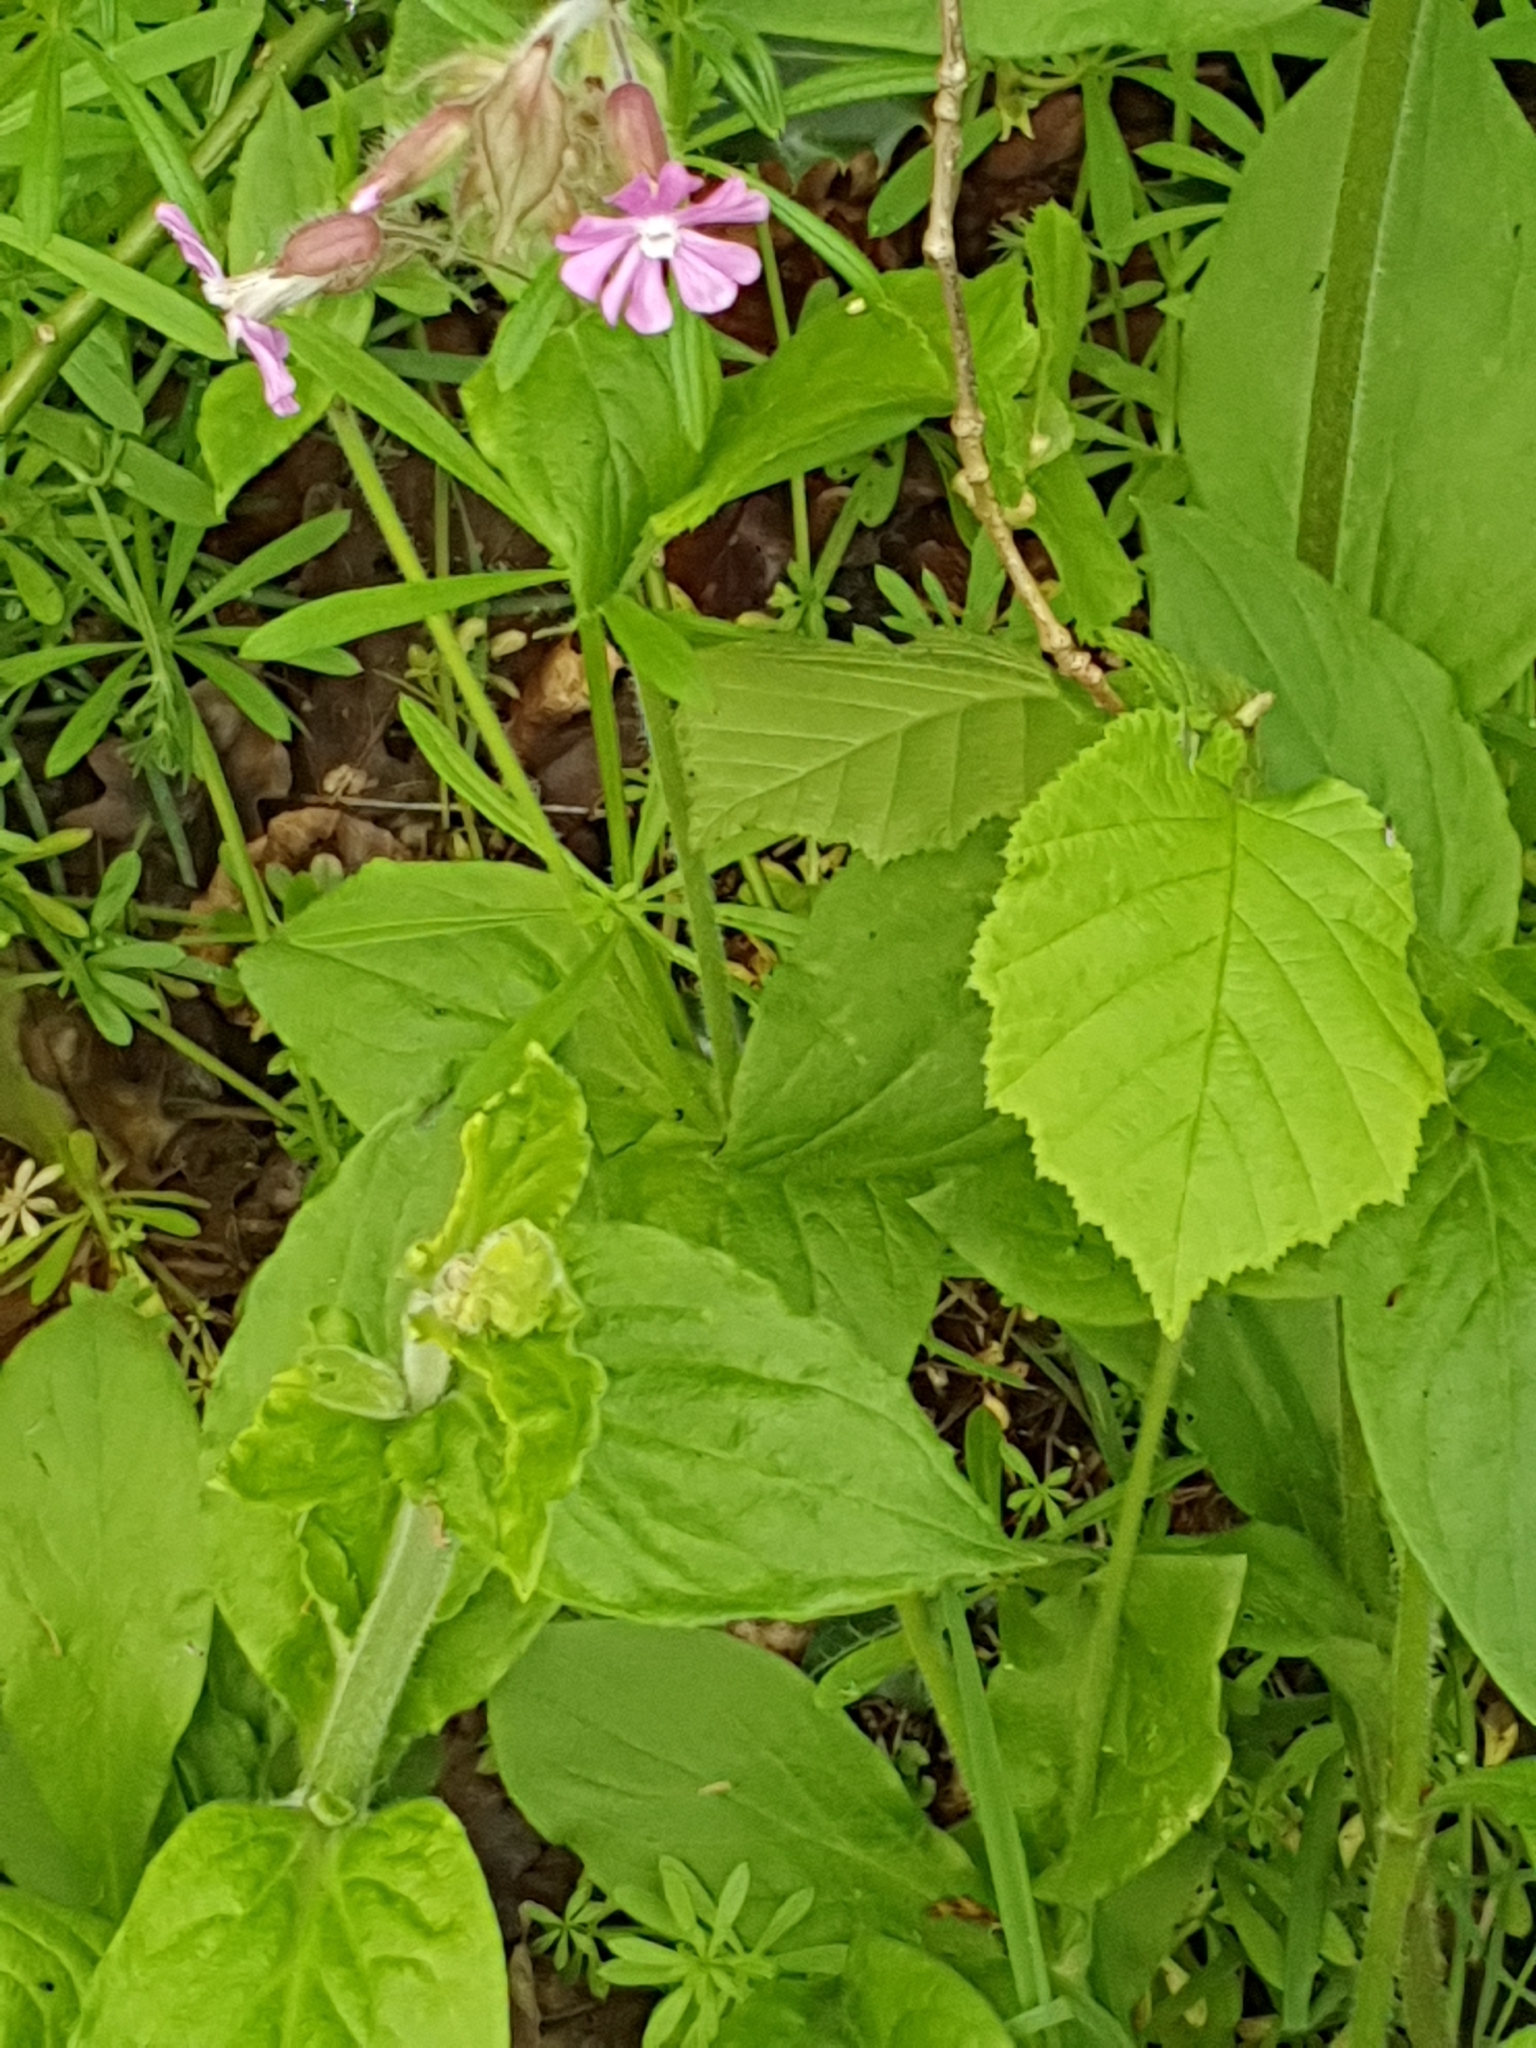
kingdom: Plantae
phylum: Tracheophyta
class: Magnoliopsida
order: Caryophyllales
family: Caryophyllaceae
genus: Silene
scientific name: Silene dioica
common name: Red campion
